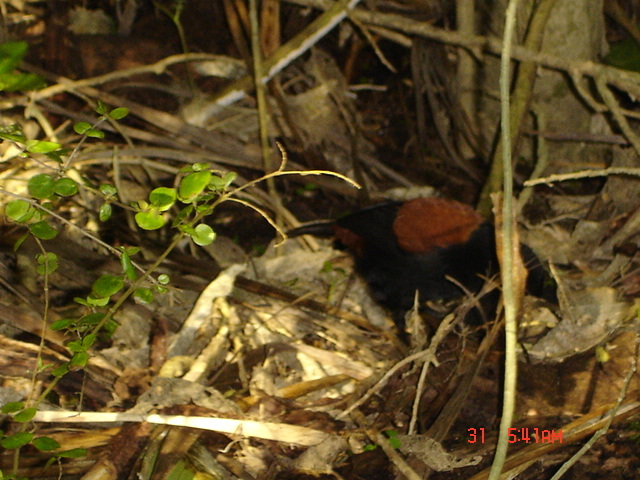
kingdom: Animalia
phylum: Chordata
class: Aves
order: Passeriformes
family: Callaeatidae
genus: Philesturnus
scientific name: Philesturnus carunculatus
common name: South island saddleback
